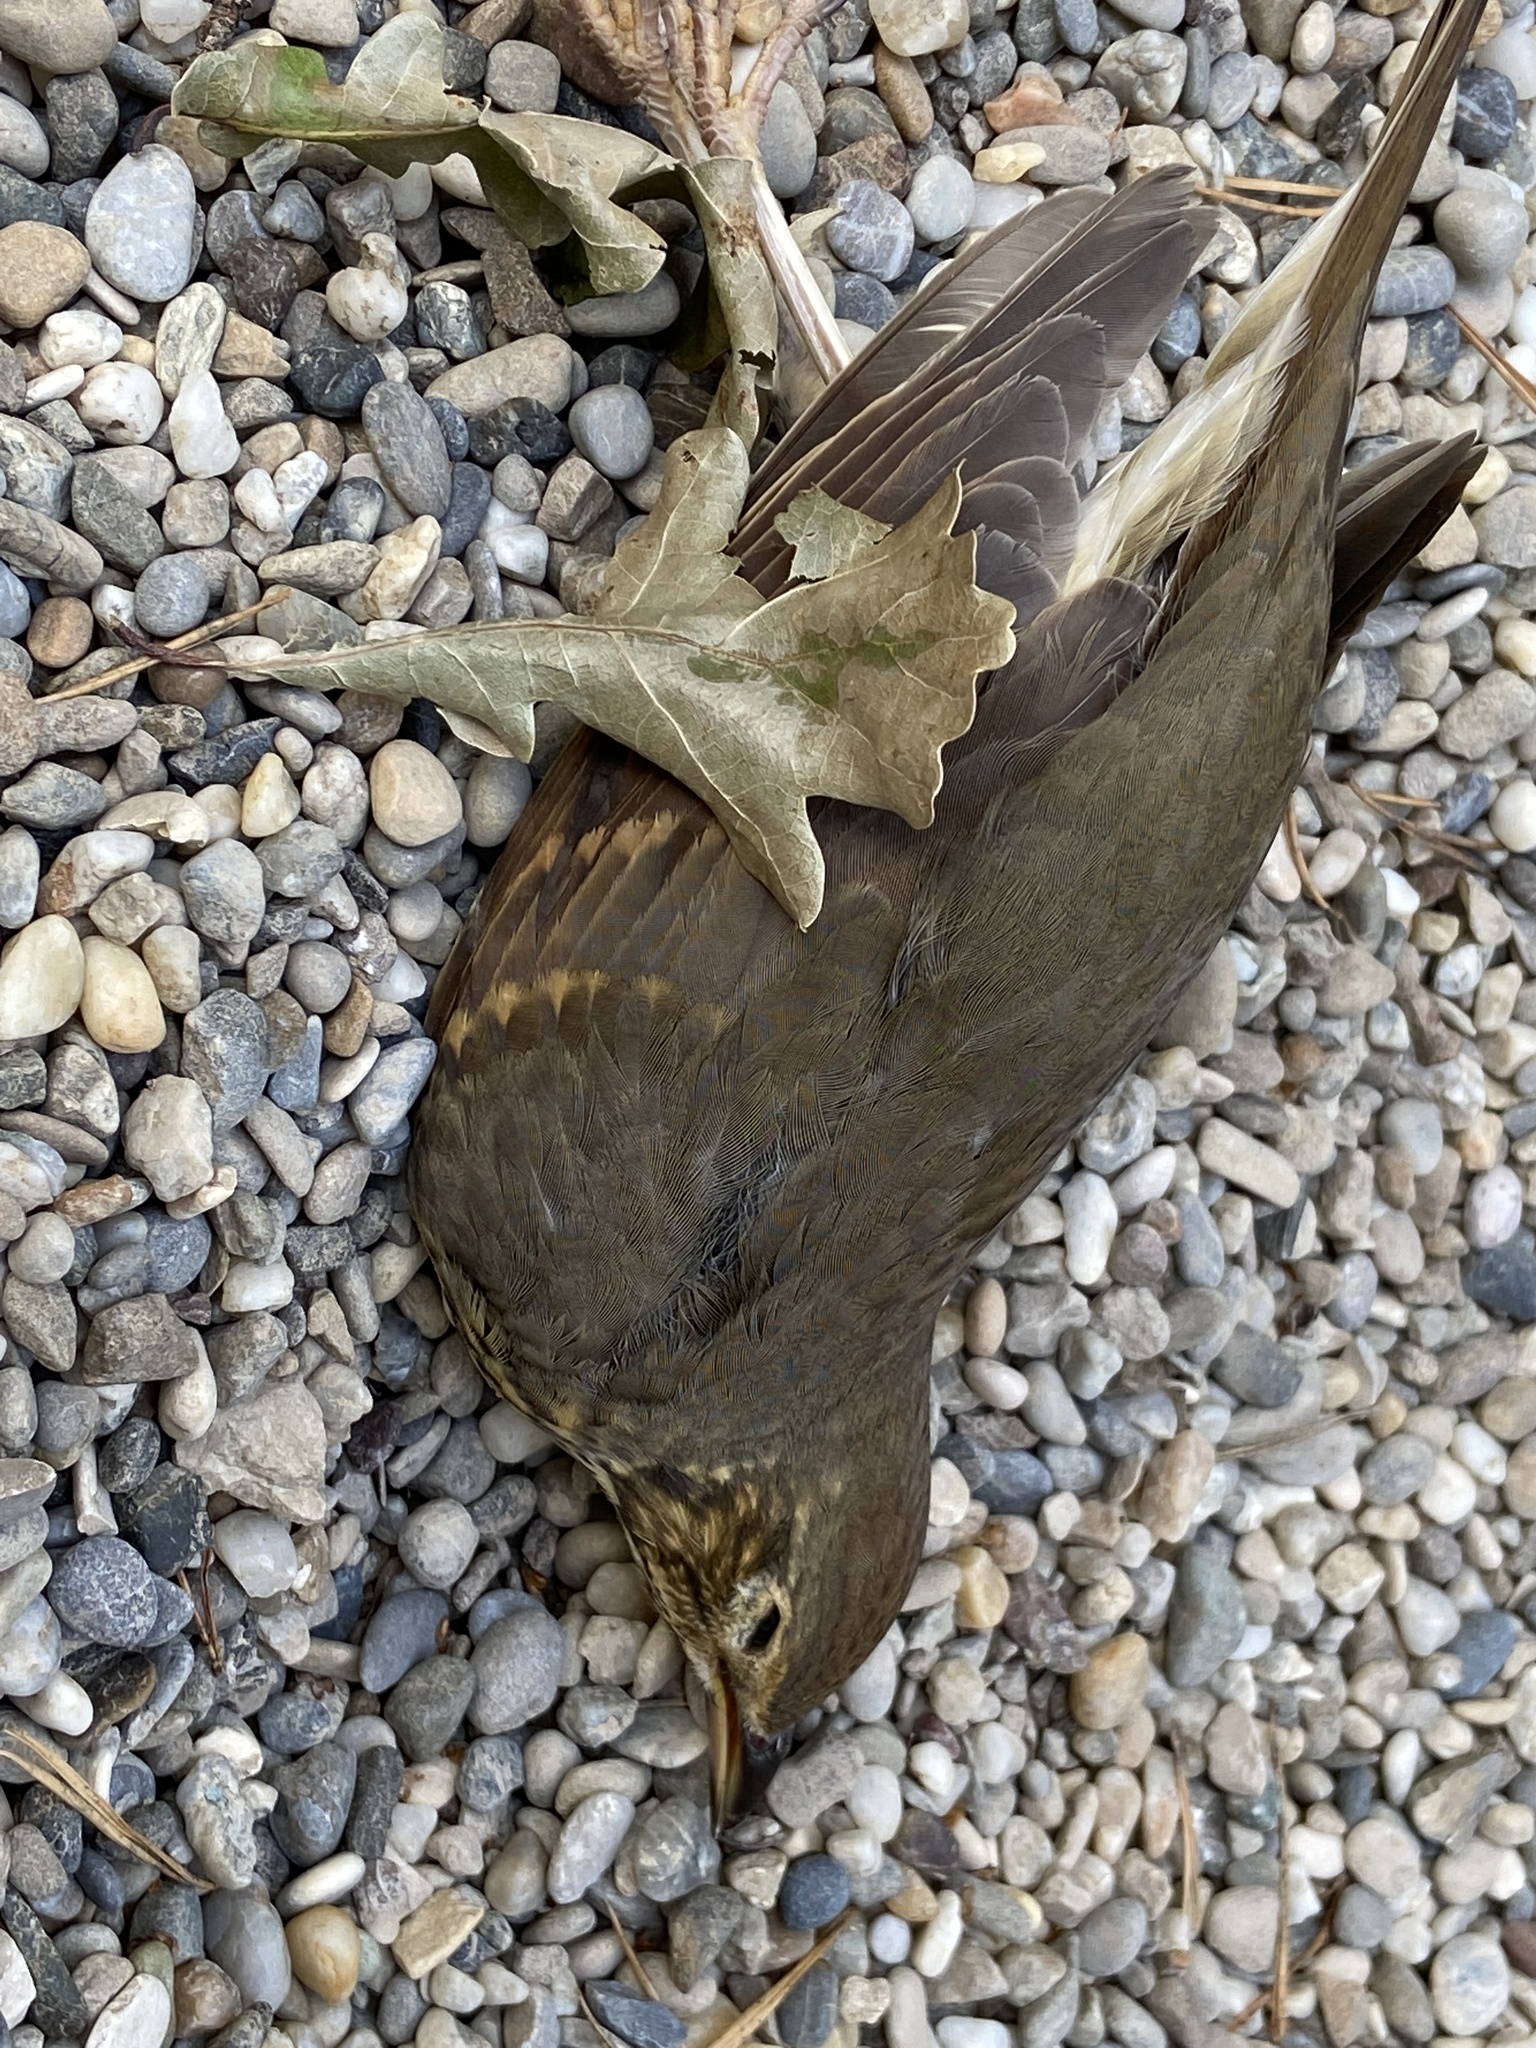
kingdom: Animalia
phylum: Chordata
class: Aves
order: Passeriformes
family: Turdidae
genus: Turdus
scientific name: Turdus philomelos
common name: Song thrush
